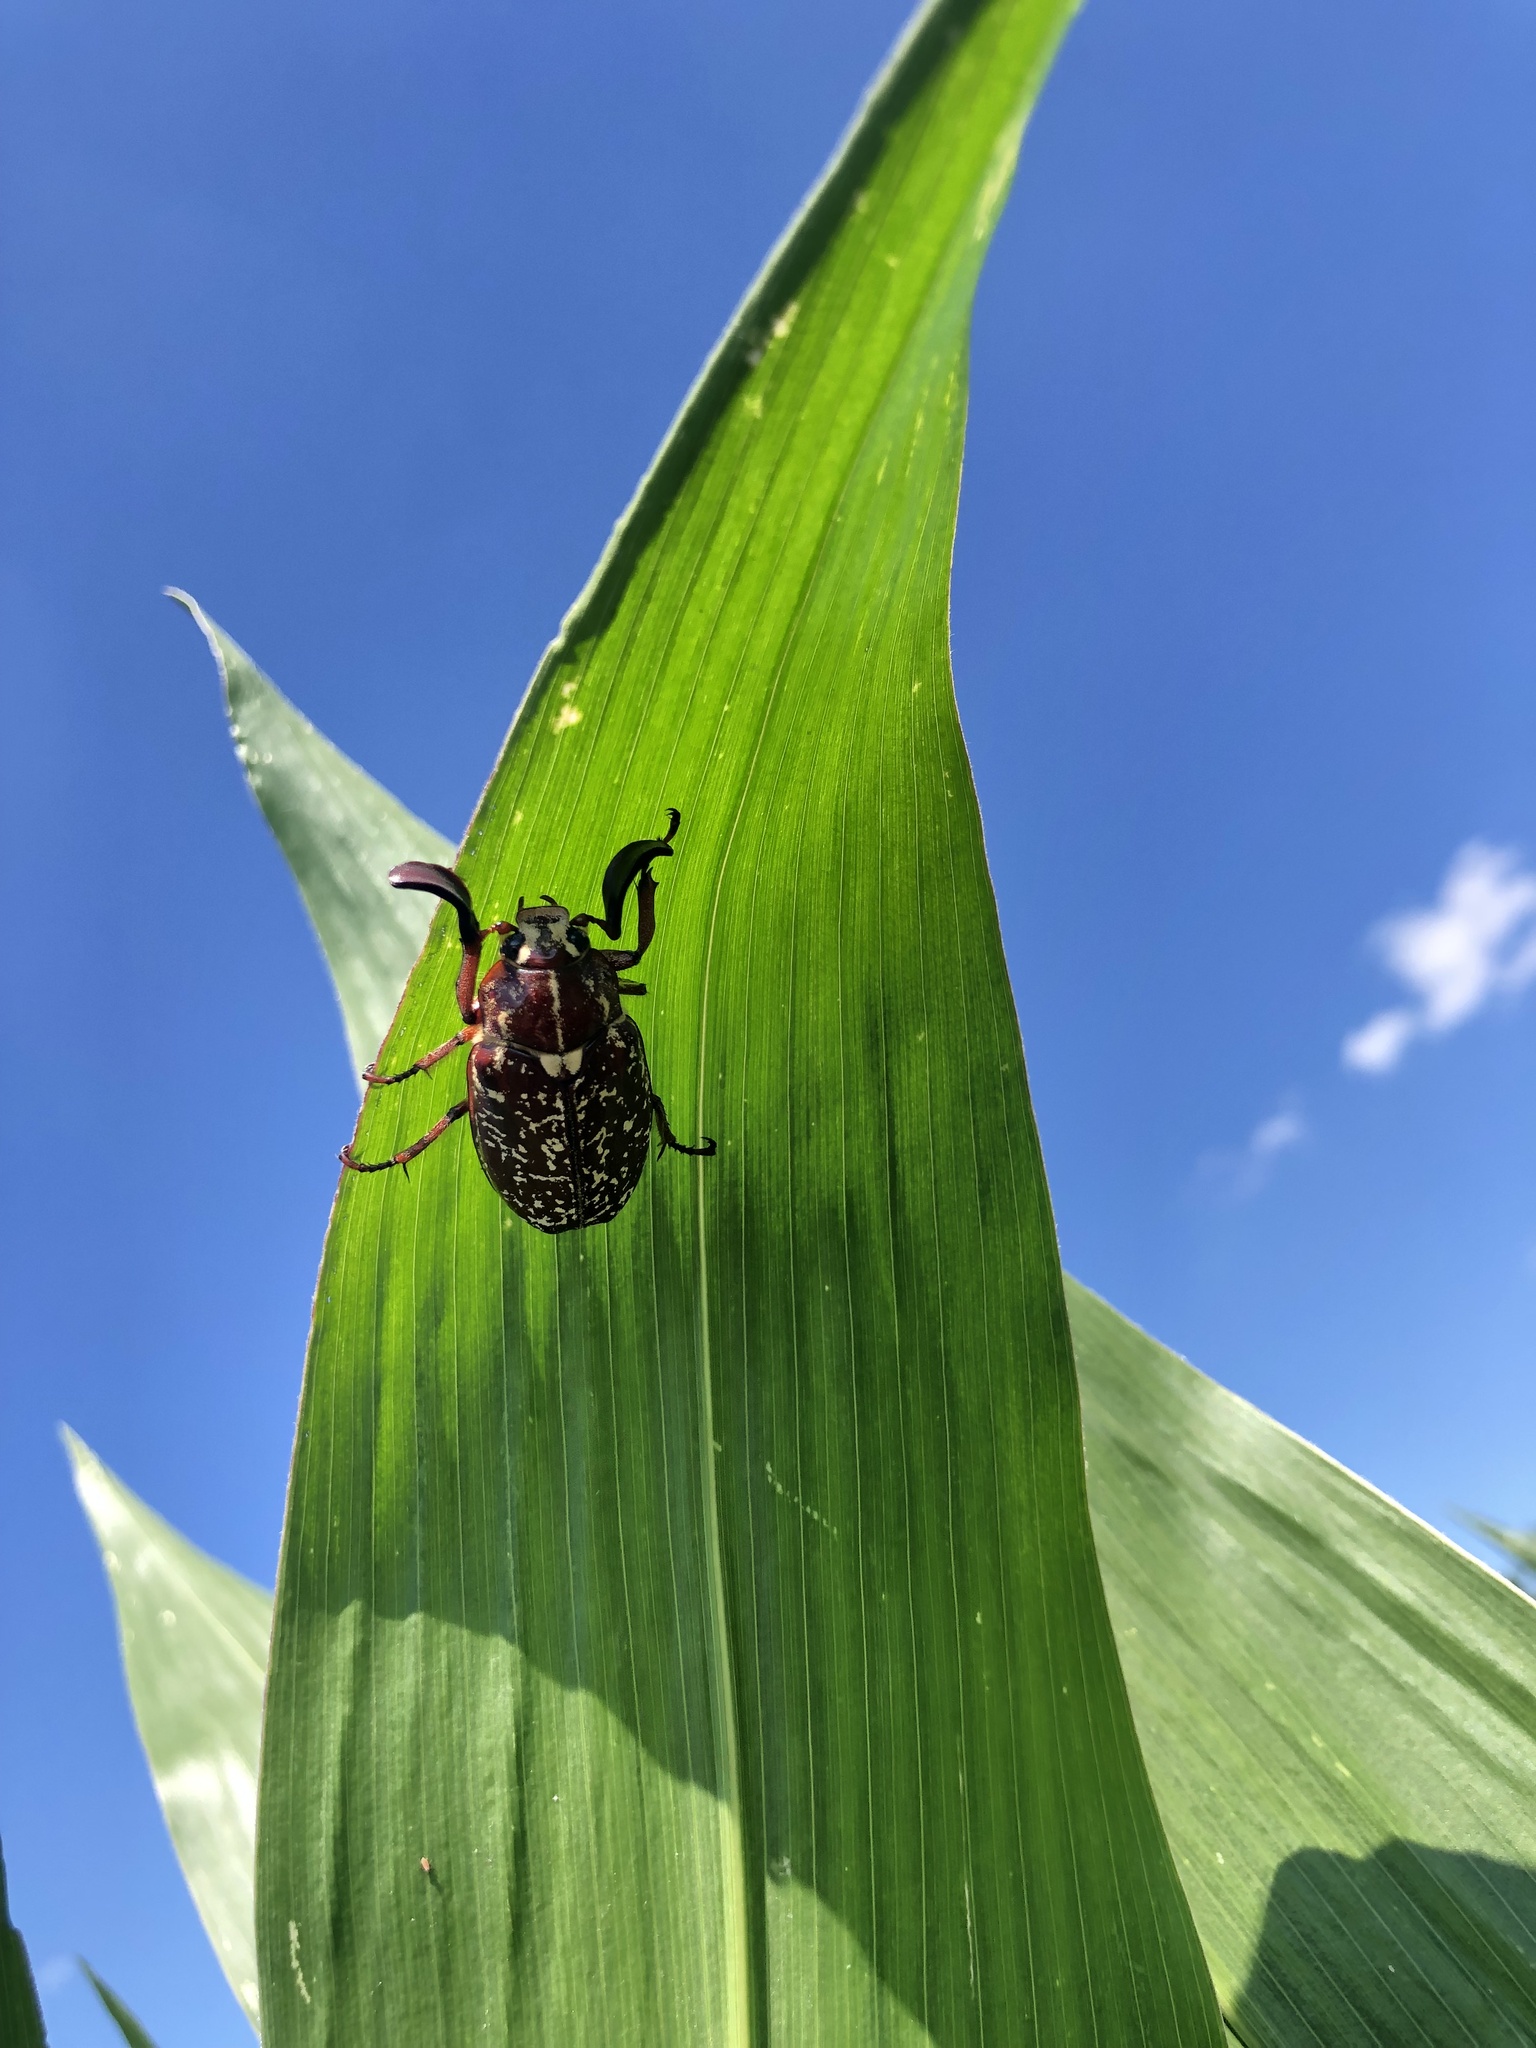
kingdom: Animalia
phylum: Arthropoda
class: Insecta
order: Coleoptera
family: Scarabaeidae
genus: Polyphylla
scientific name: Polyphylla fullo
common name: Pine chafer
